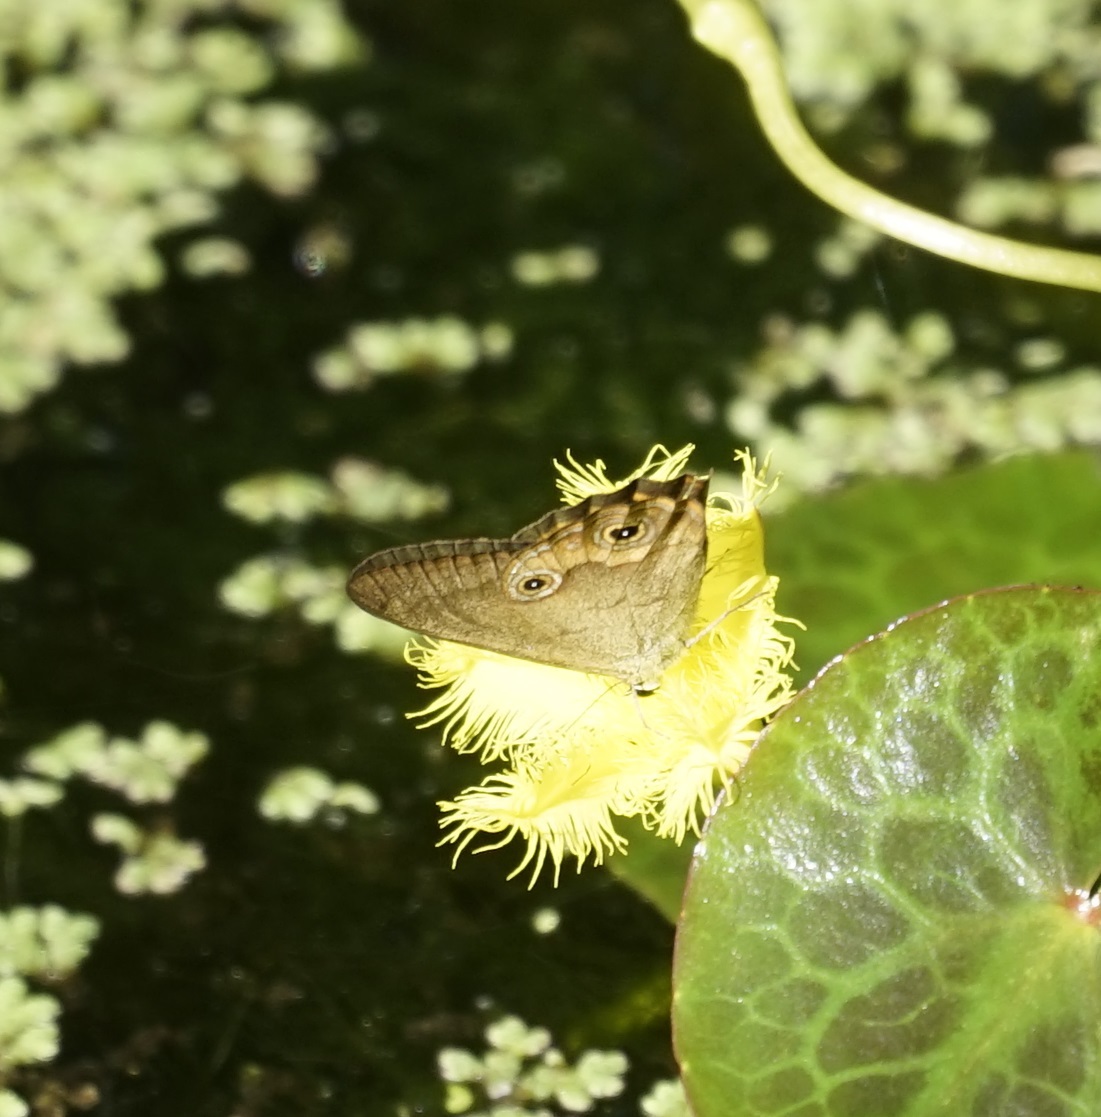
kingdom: Animalia
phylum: Arthropoda
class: Insecta
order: Lepidoptera
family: Nymphalidae
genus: Hypocysta
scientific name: Hypocysta metirius
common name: Brown ringlet
